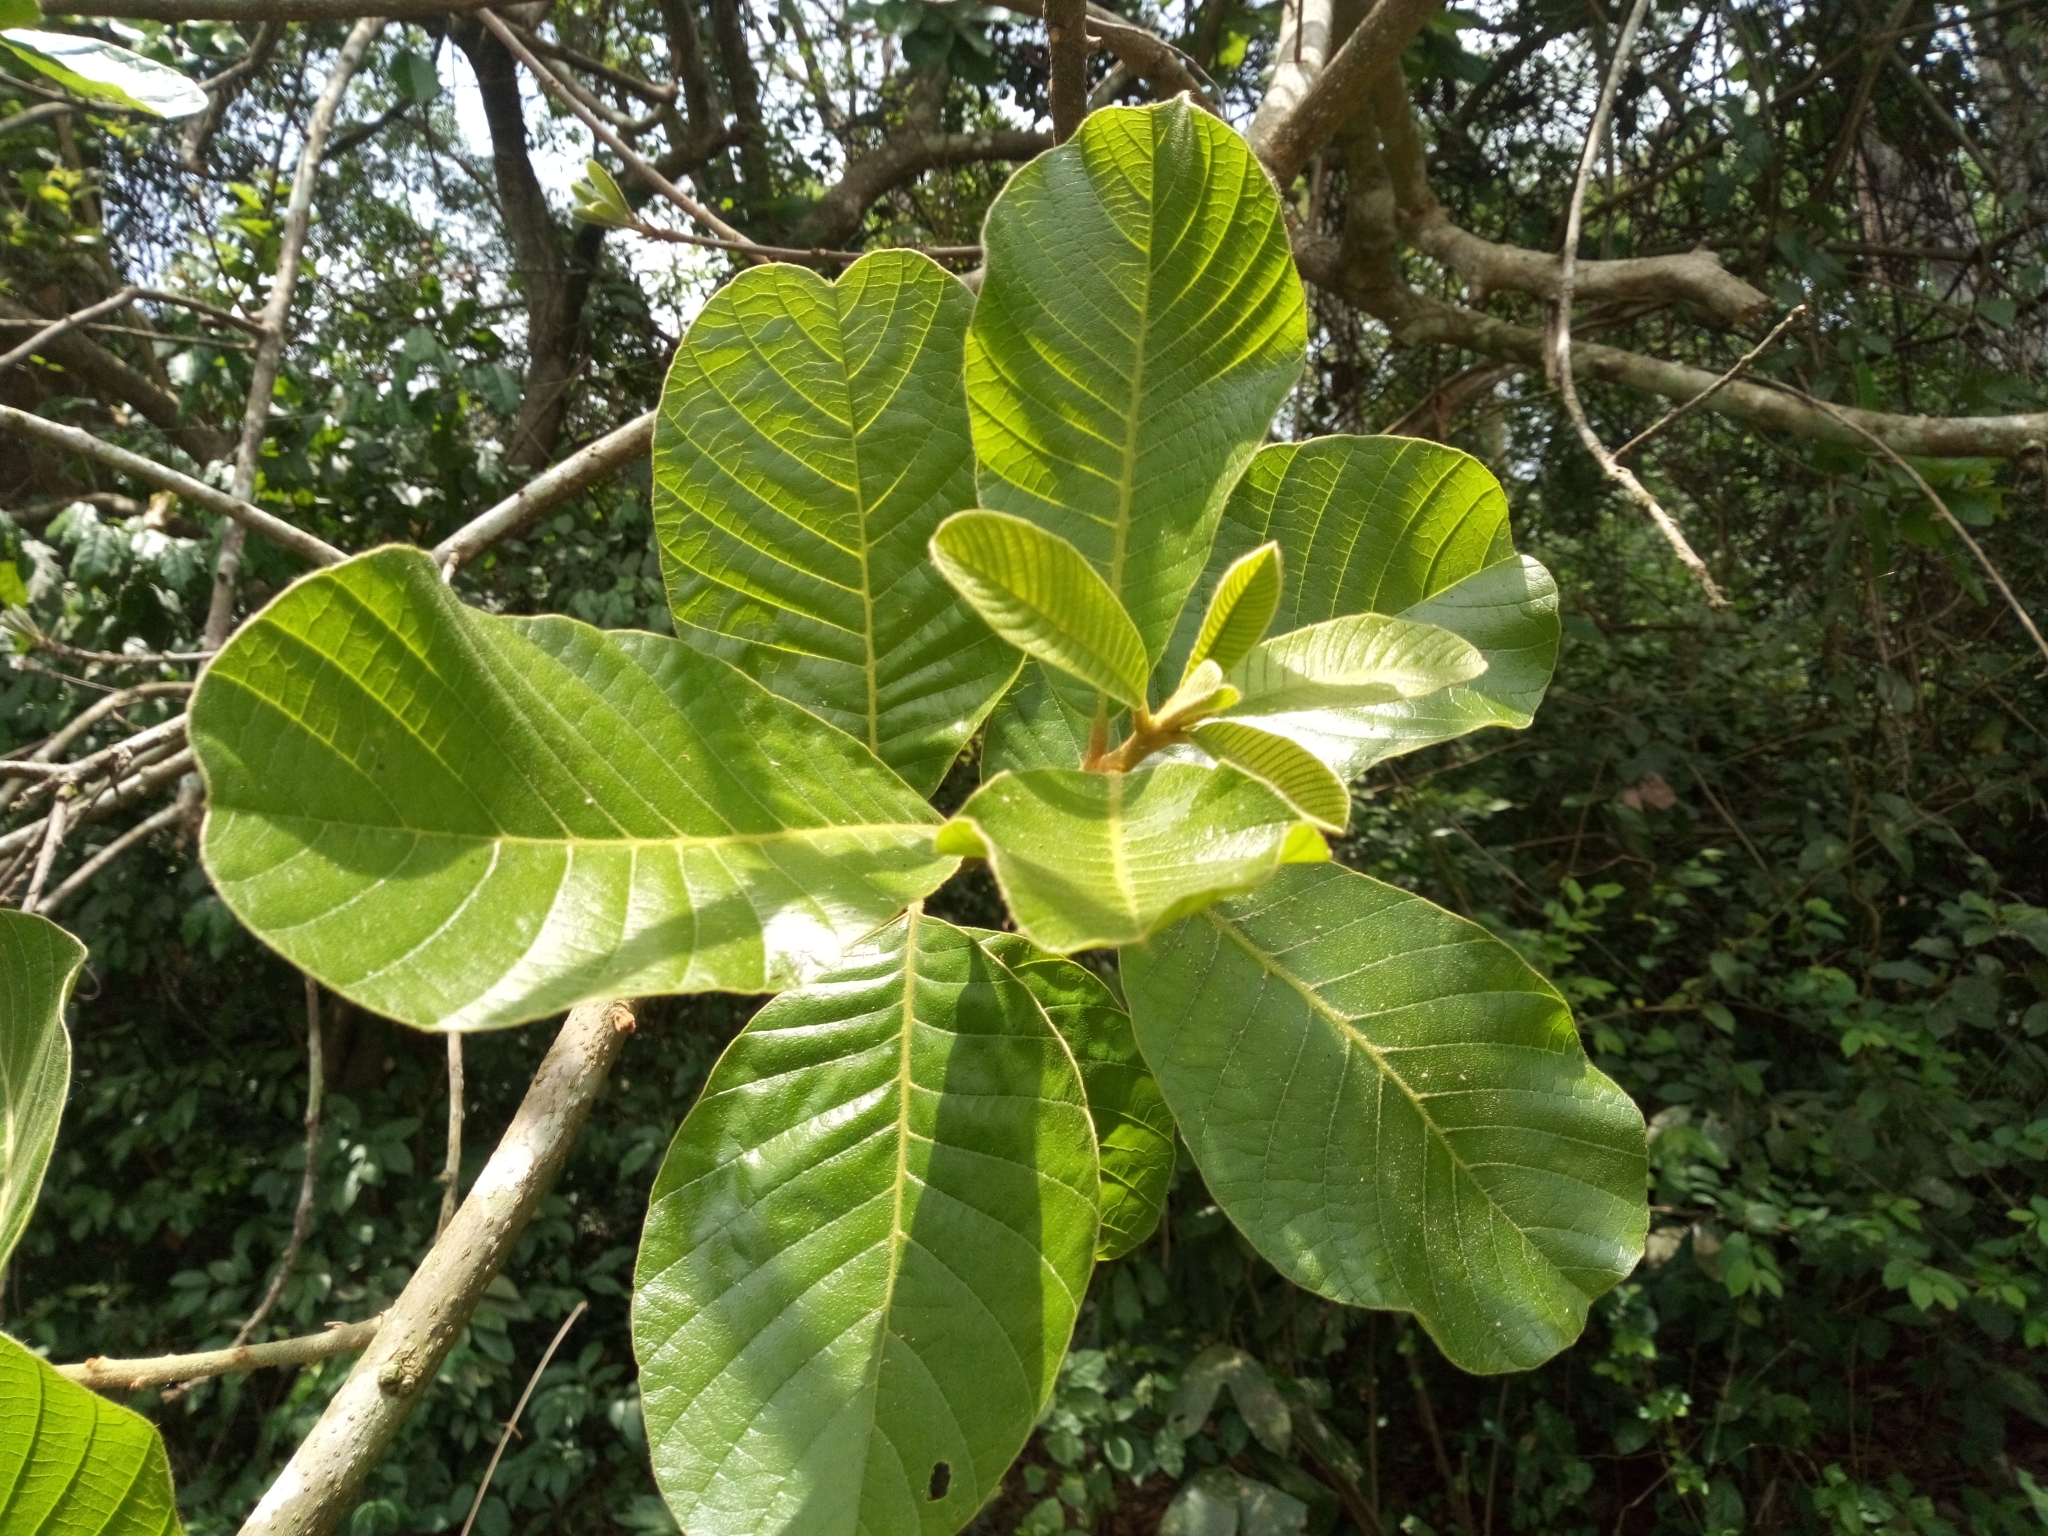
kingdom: Plantae
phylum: Tracheophyta
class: Magnoliopsida
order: Ericales
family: Sapotaceae
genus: Malacantha
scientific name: Malacantha alnifolia
